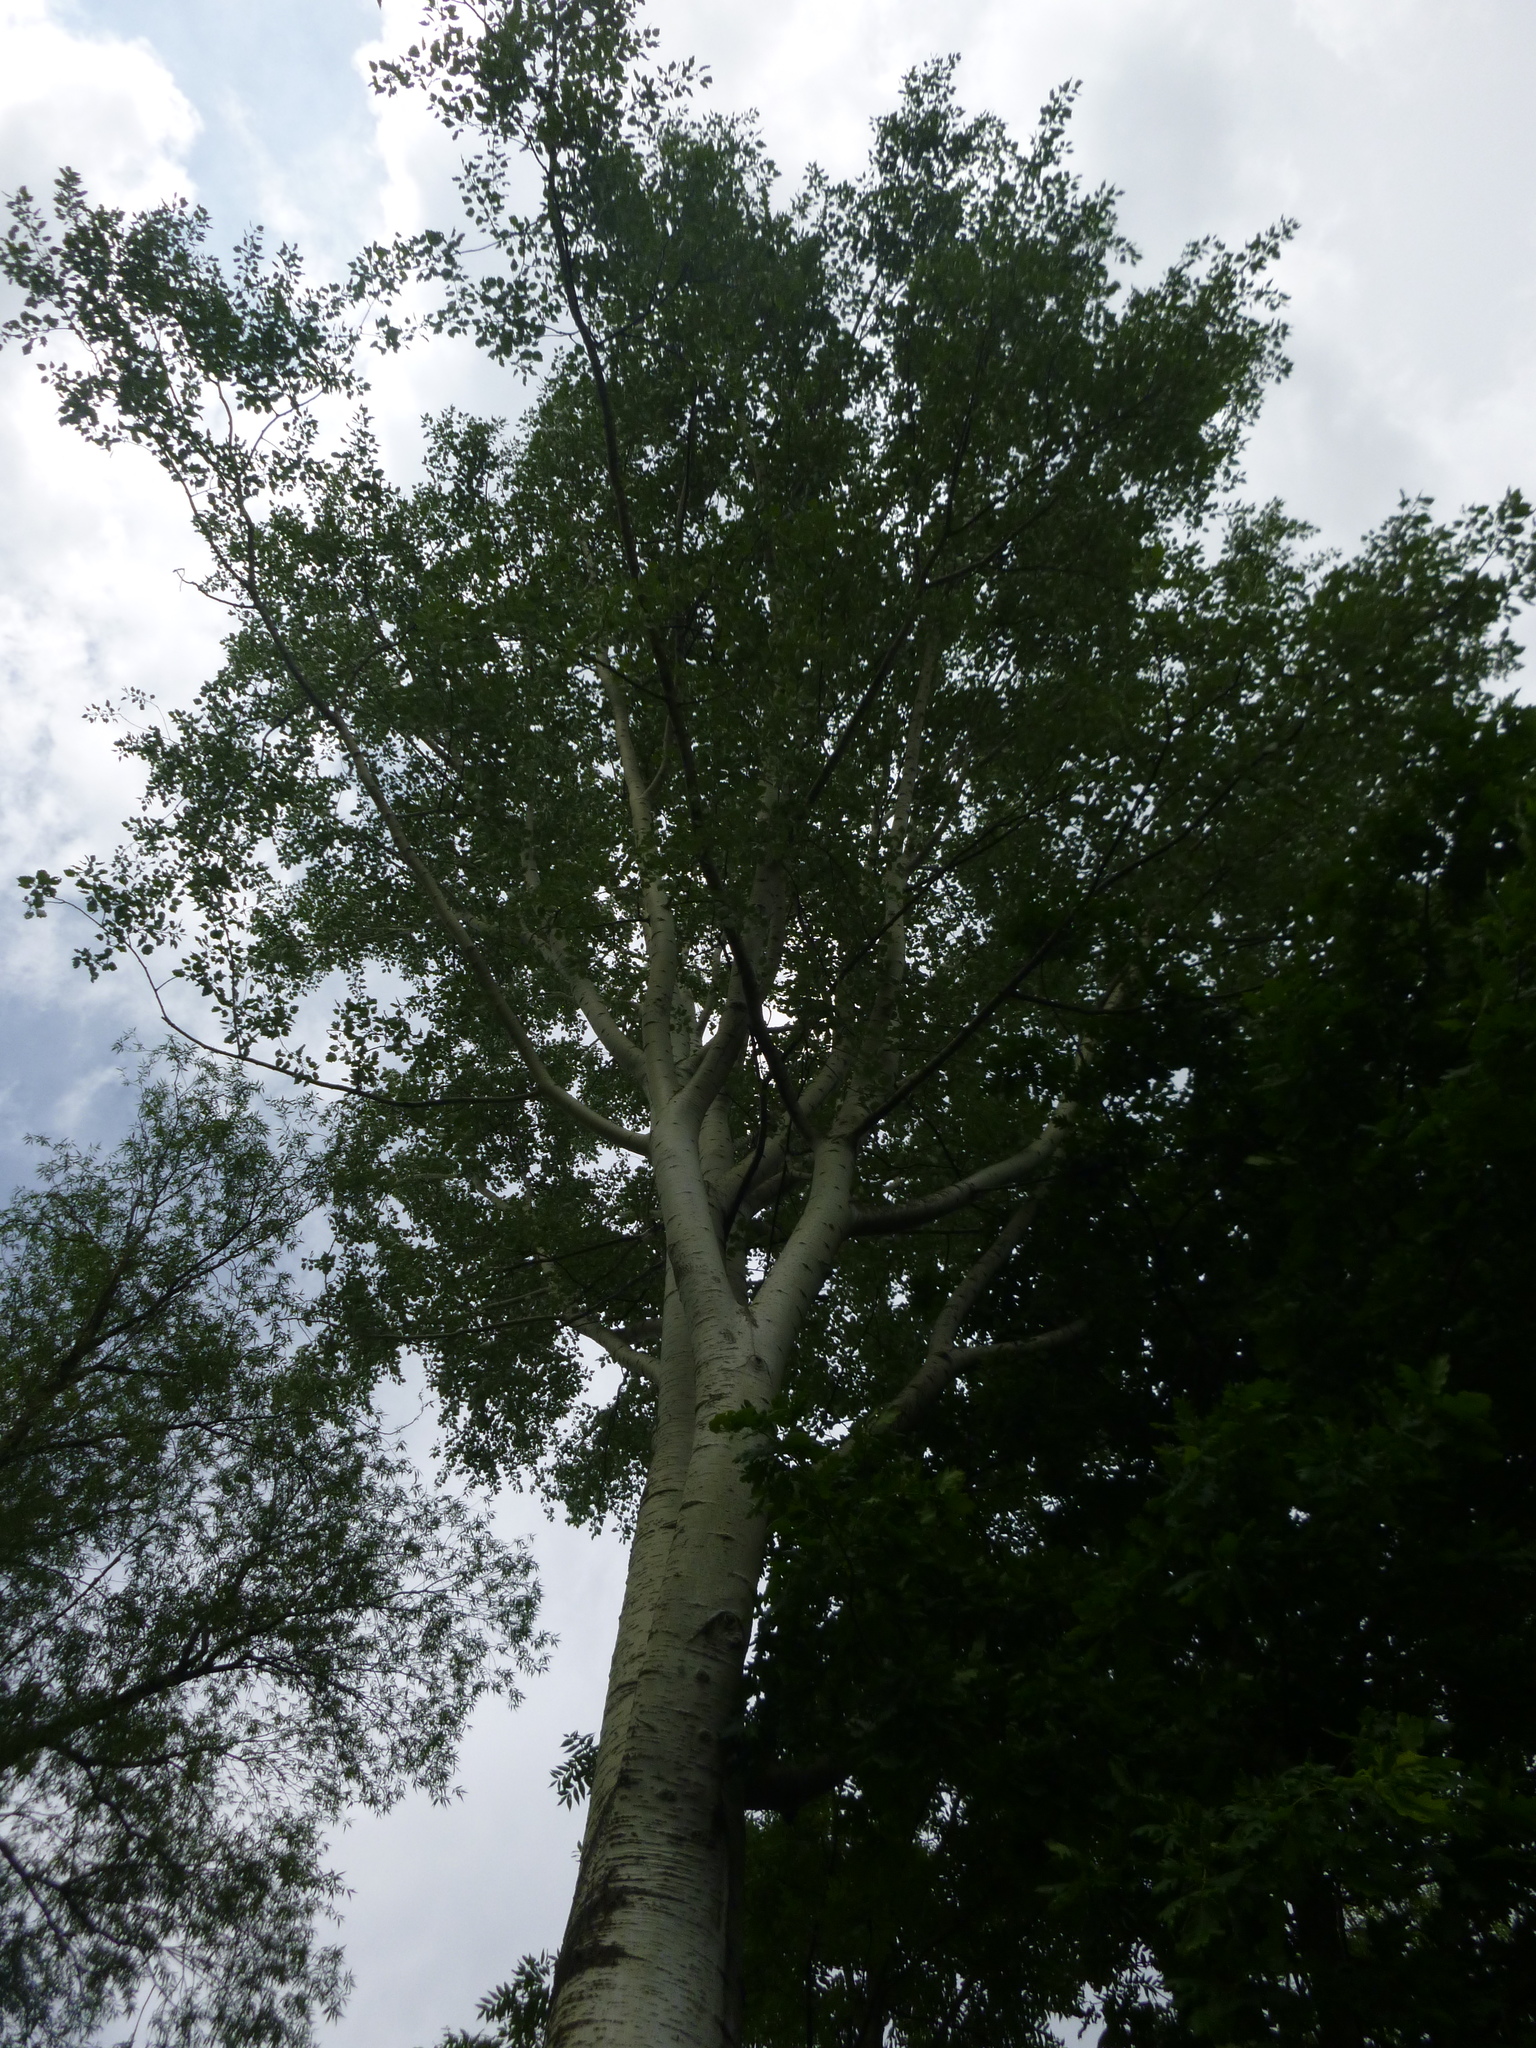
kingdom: Plantae
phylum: Tracheophyta
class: Magnoliopsida
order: Malpighiales
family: Salicaceae
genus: Populus
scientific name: Populus alba
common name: White poplar
